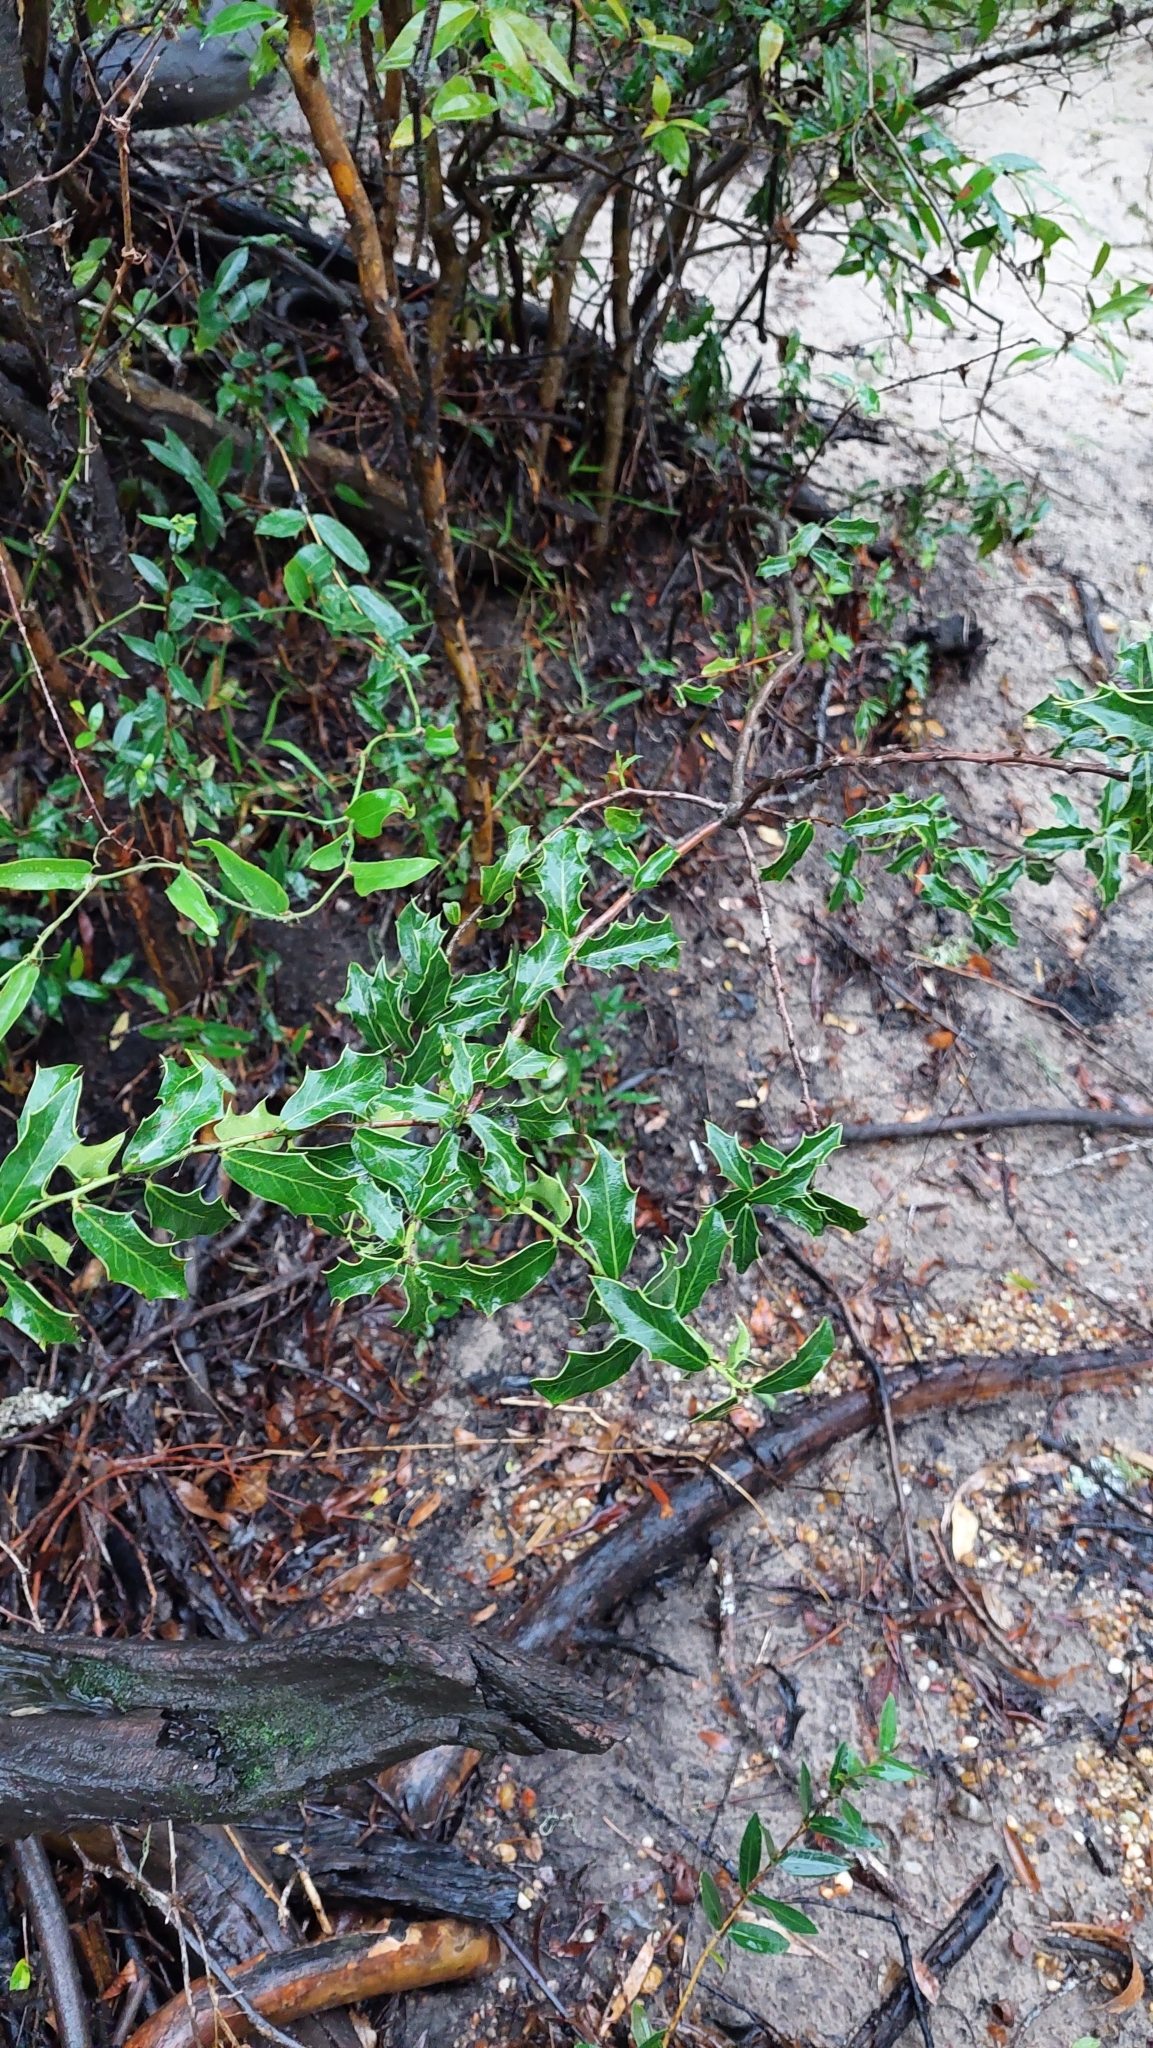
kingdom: Plantae
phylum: Tracheophyta
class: Magnoliopsida
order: Celastrales
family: Celastraceae
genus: Monteverdia
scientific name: Monteverdia
